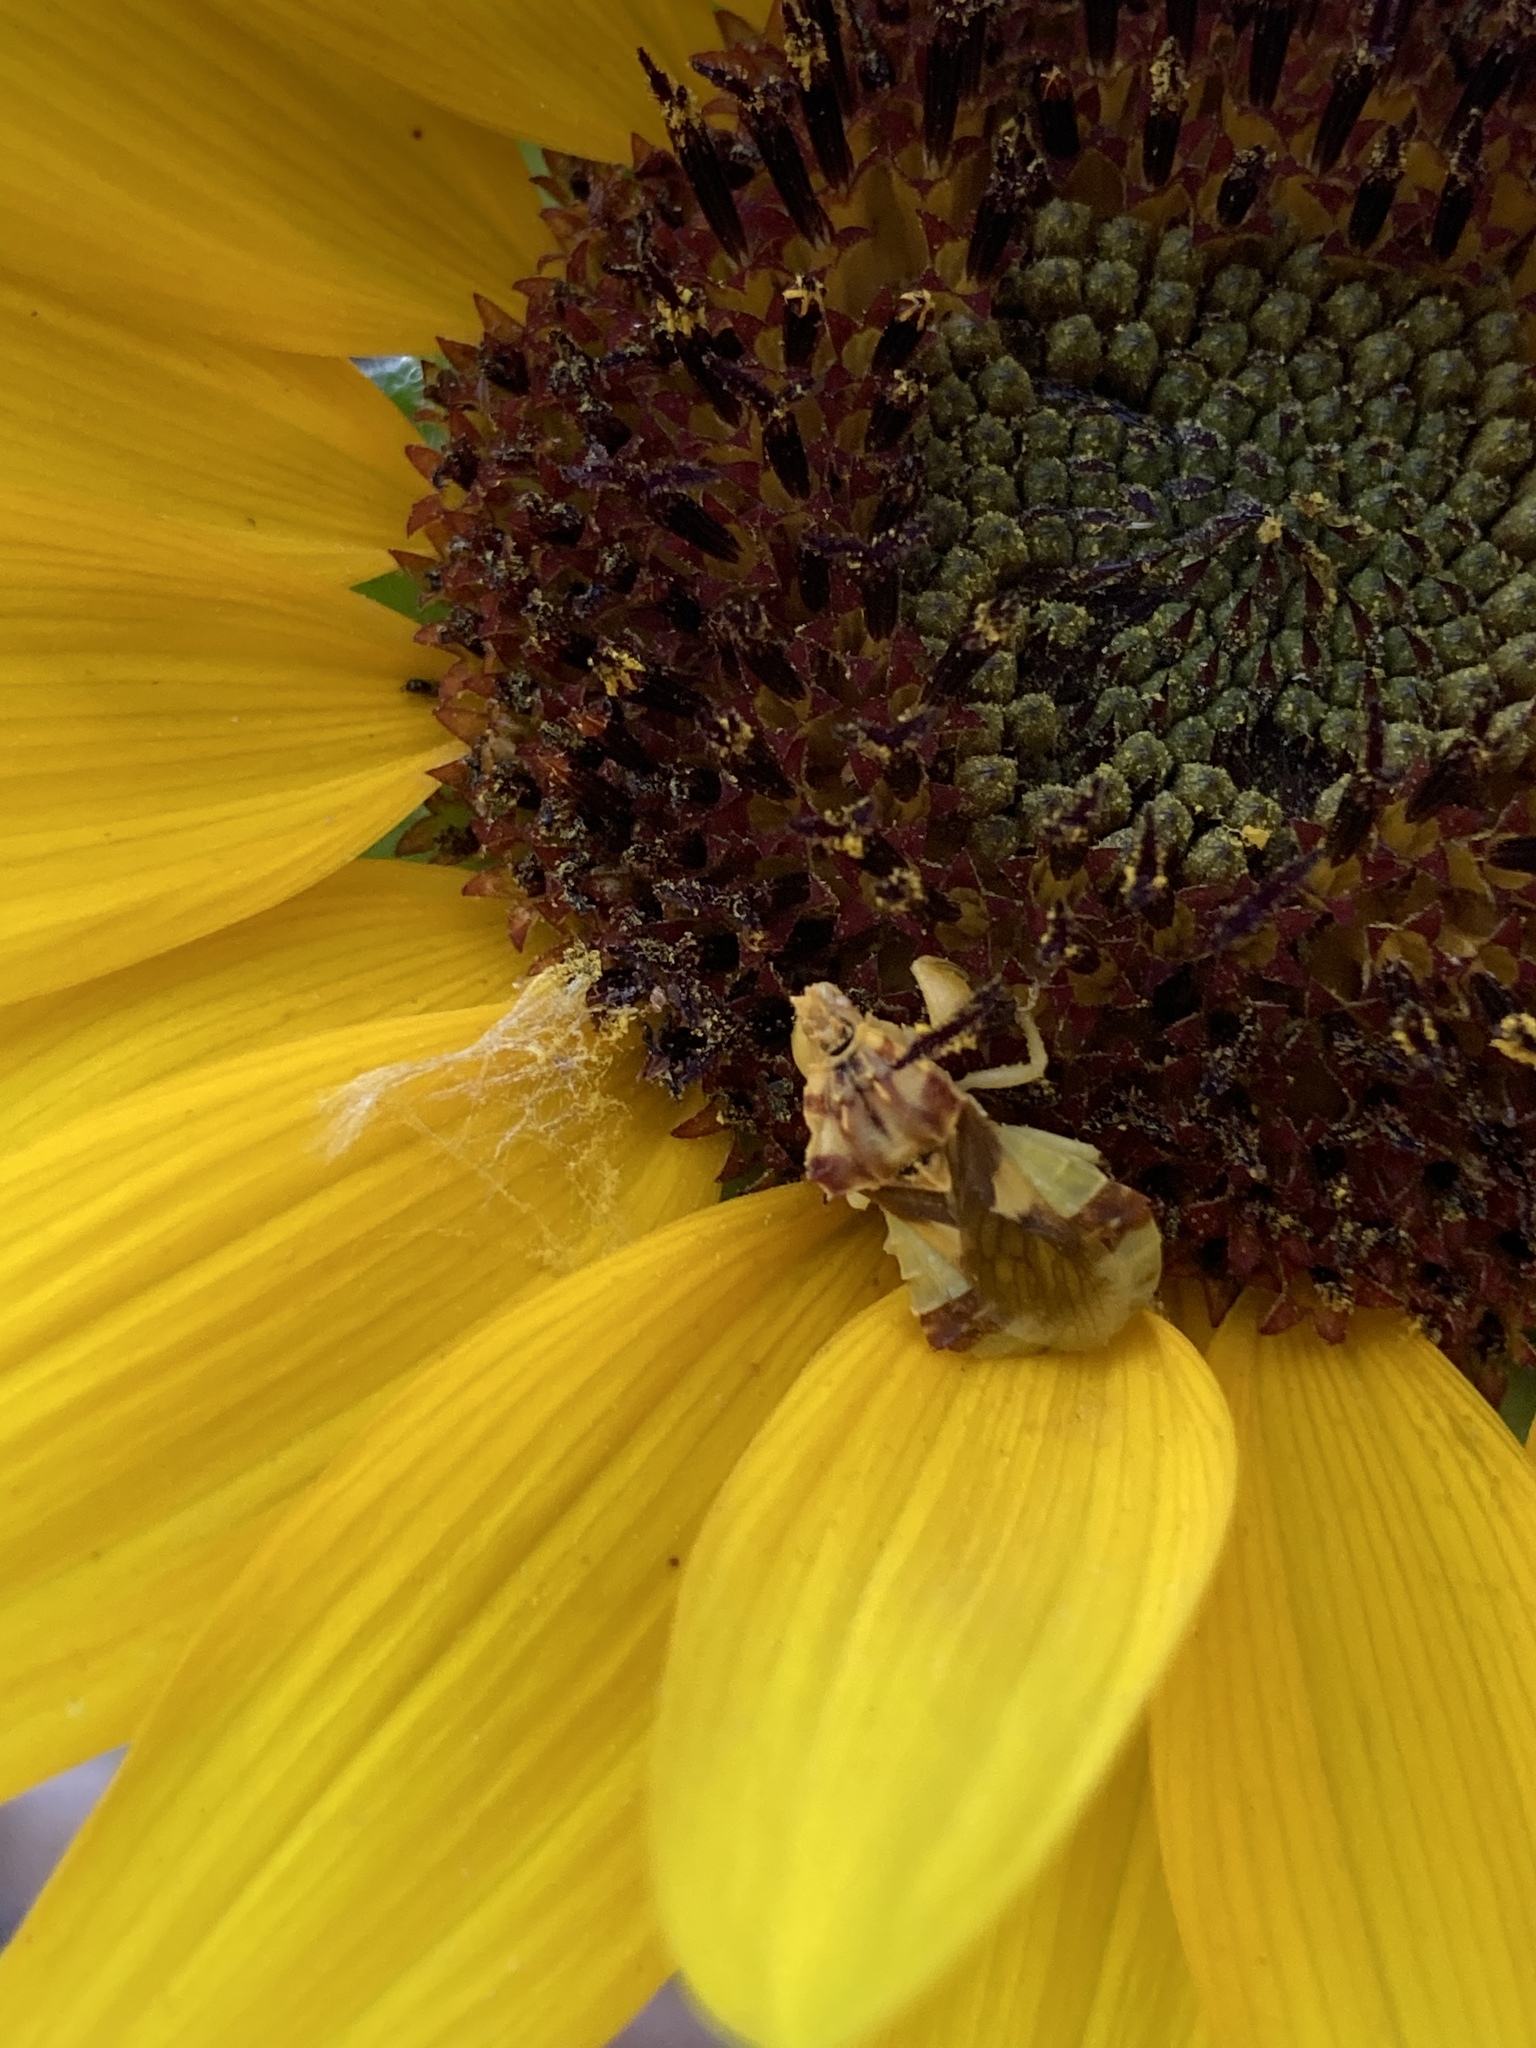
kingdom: Animalia
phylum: Arthropoda
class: Insecta
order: Hemiptera
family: Reduviidae
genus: Phymata
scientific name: Phymata americana
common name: Jagged ambush bug
